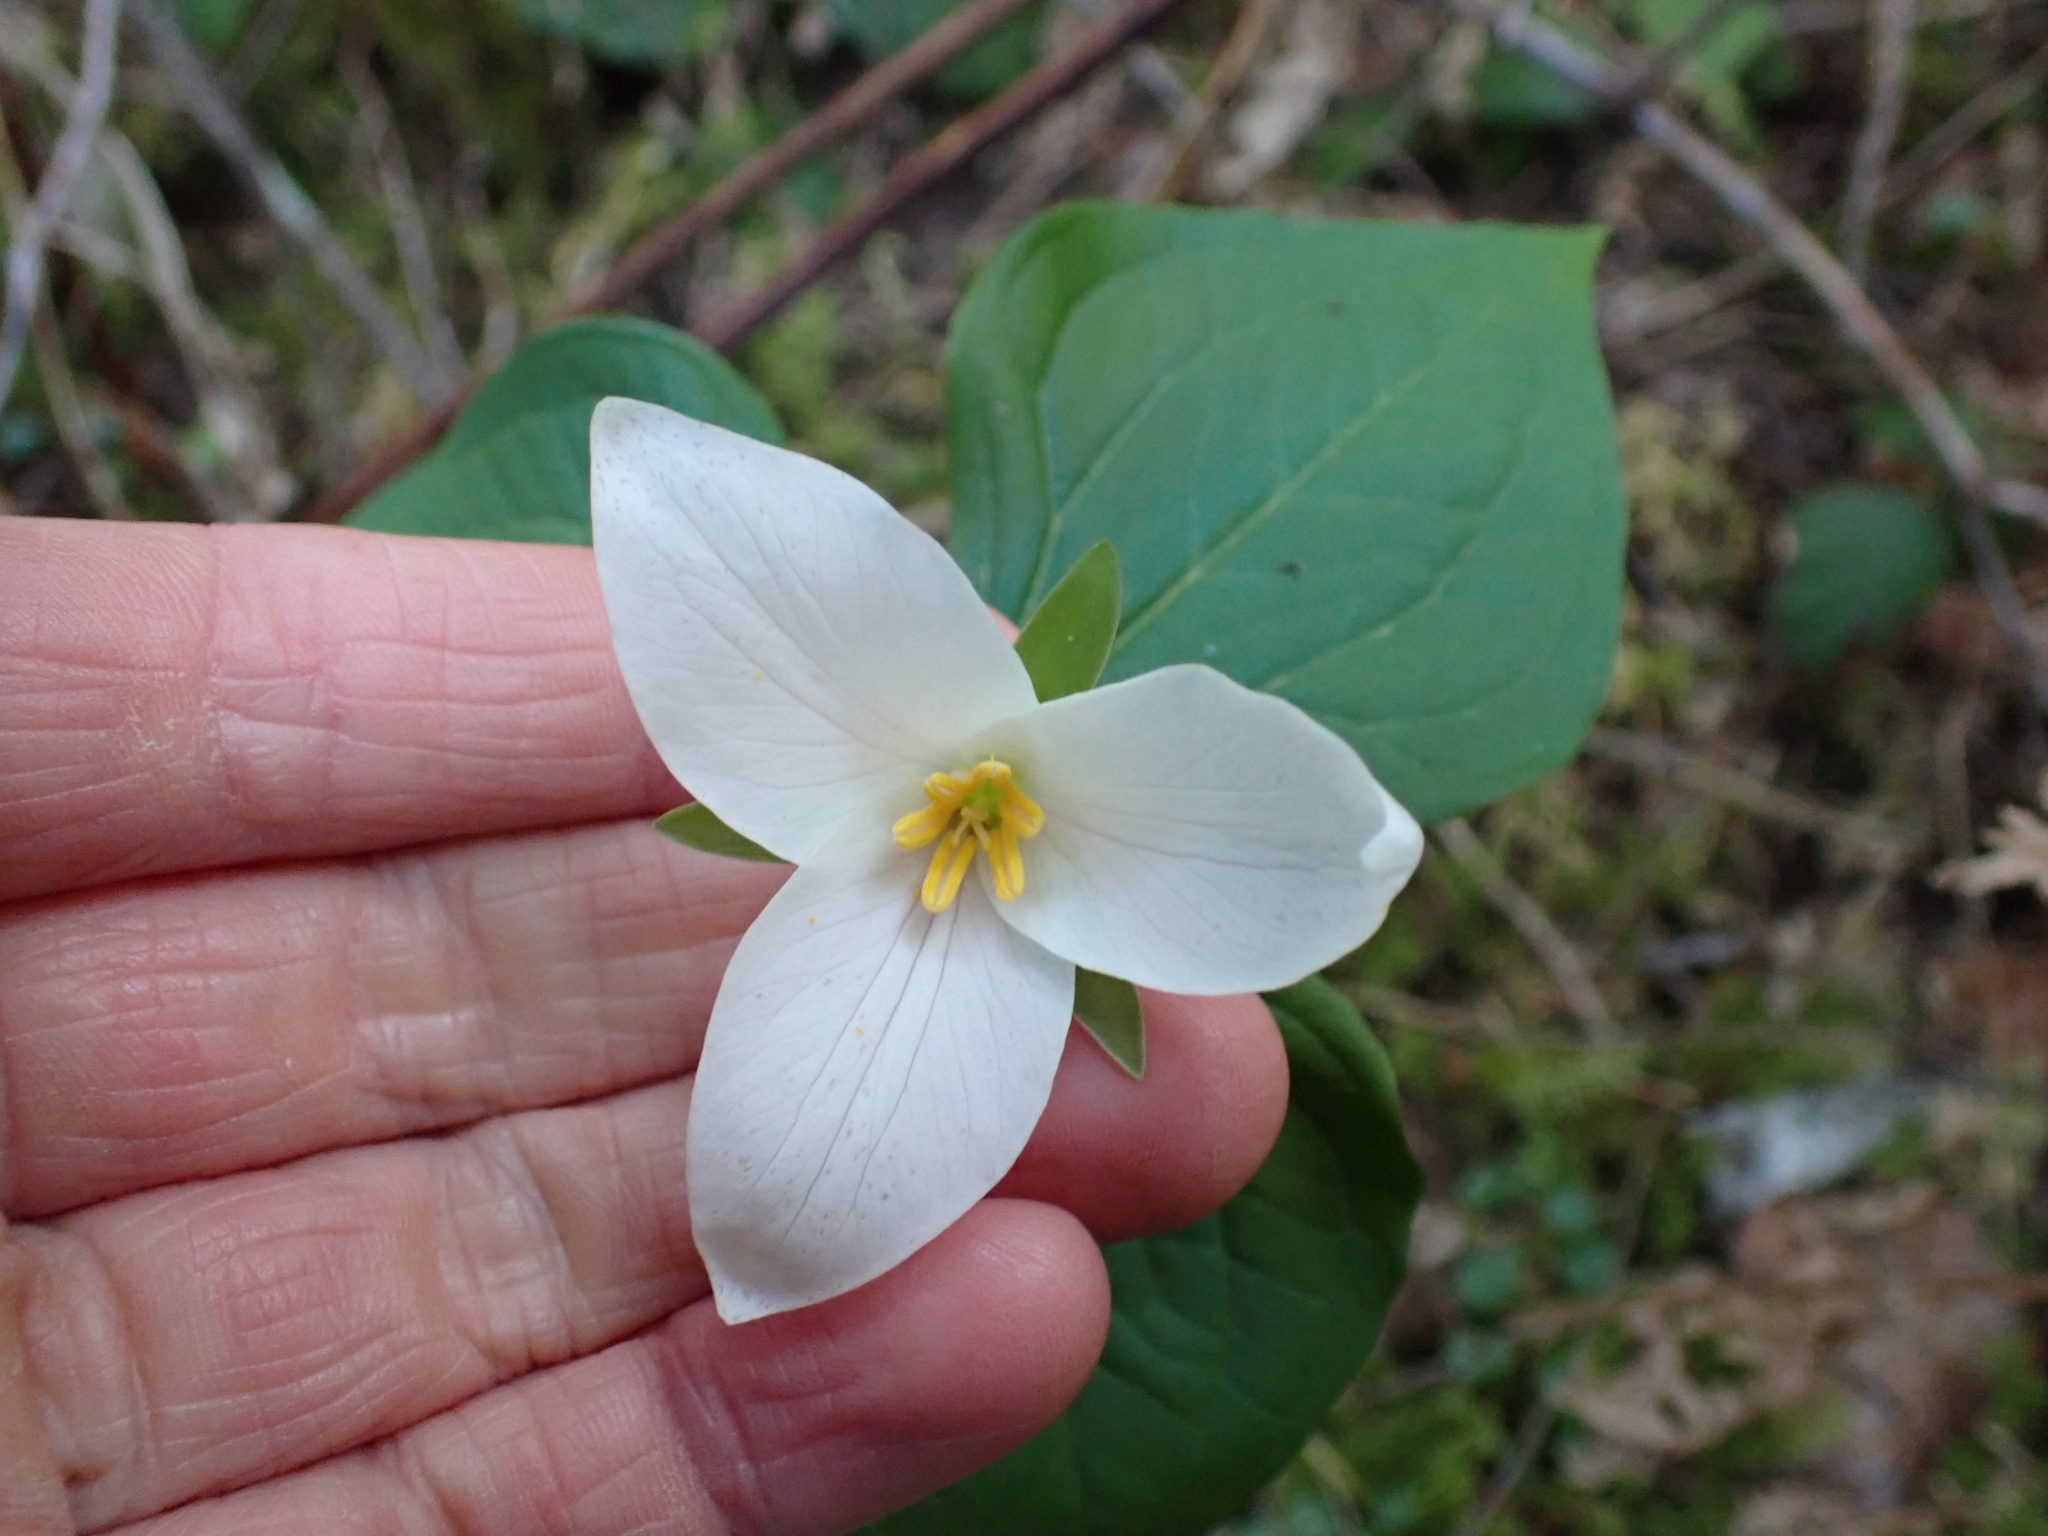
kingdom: Plantae
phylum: Tracheophyta
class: Liliopsida
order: Liliales
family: Melanthiaceae
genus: Trillium
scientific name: Trillium ovatum
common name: Pacific trillium
